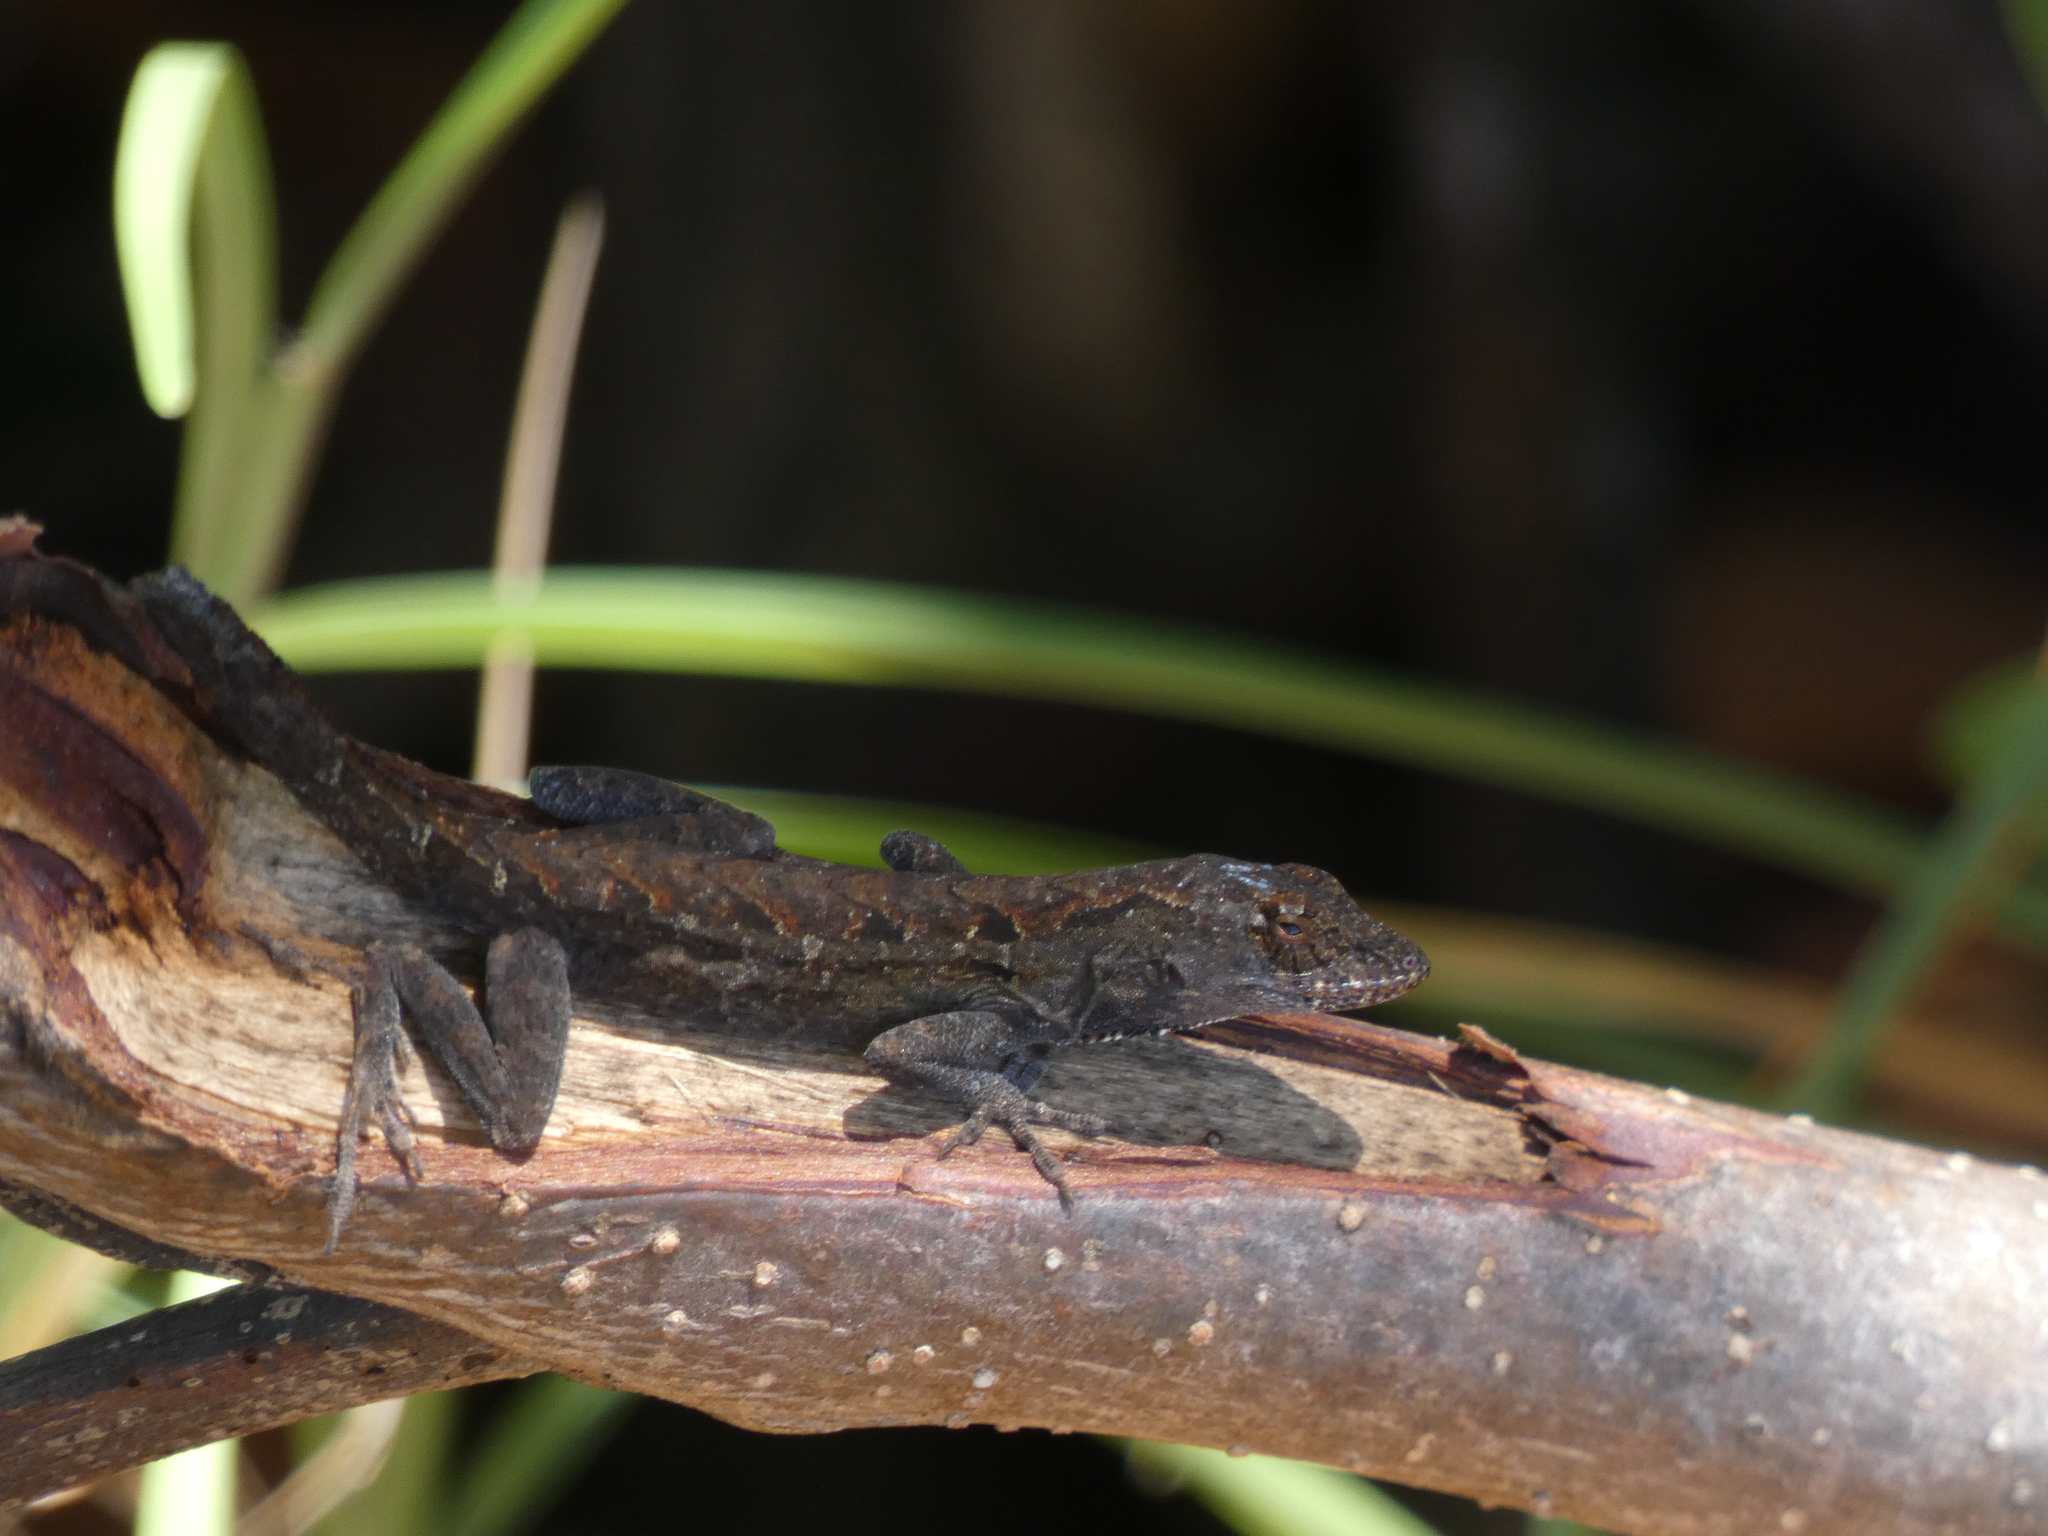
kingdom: Animalia
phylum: Chordata
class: Squamata
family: Dactyloidae
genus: Anolis
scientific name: Anolis sagrei
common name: Brown anole
